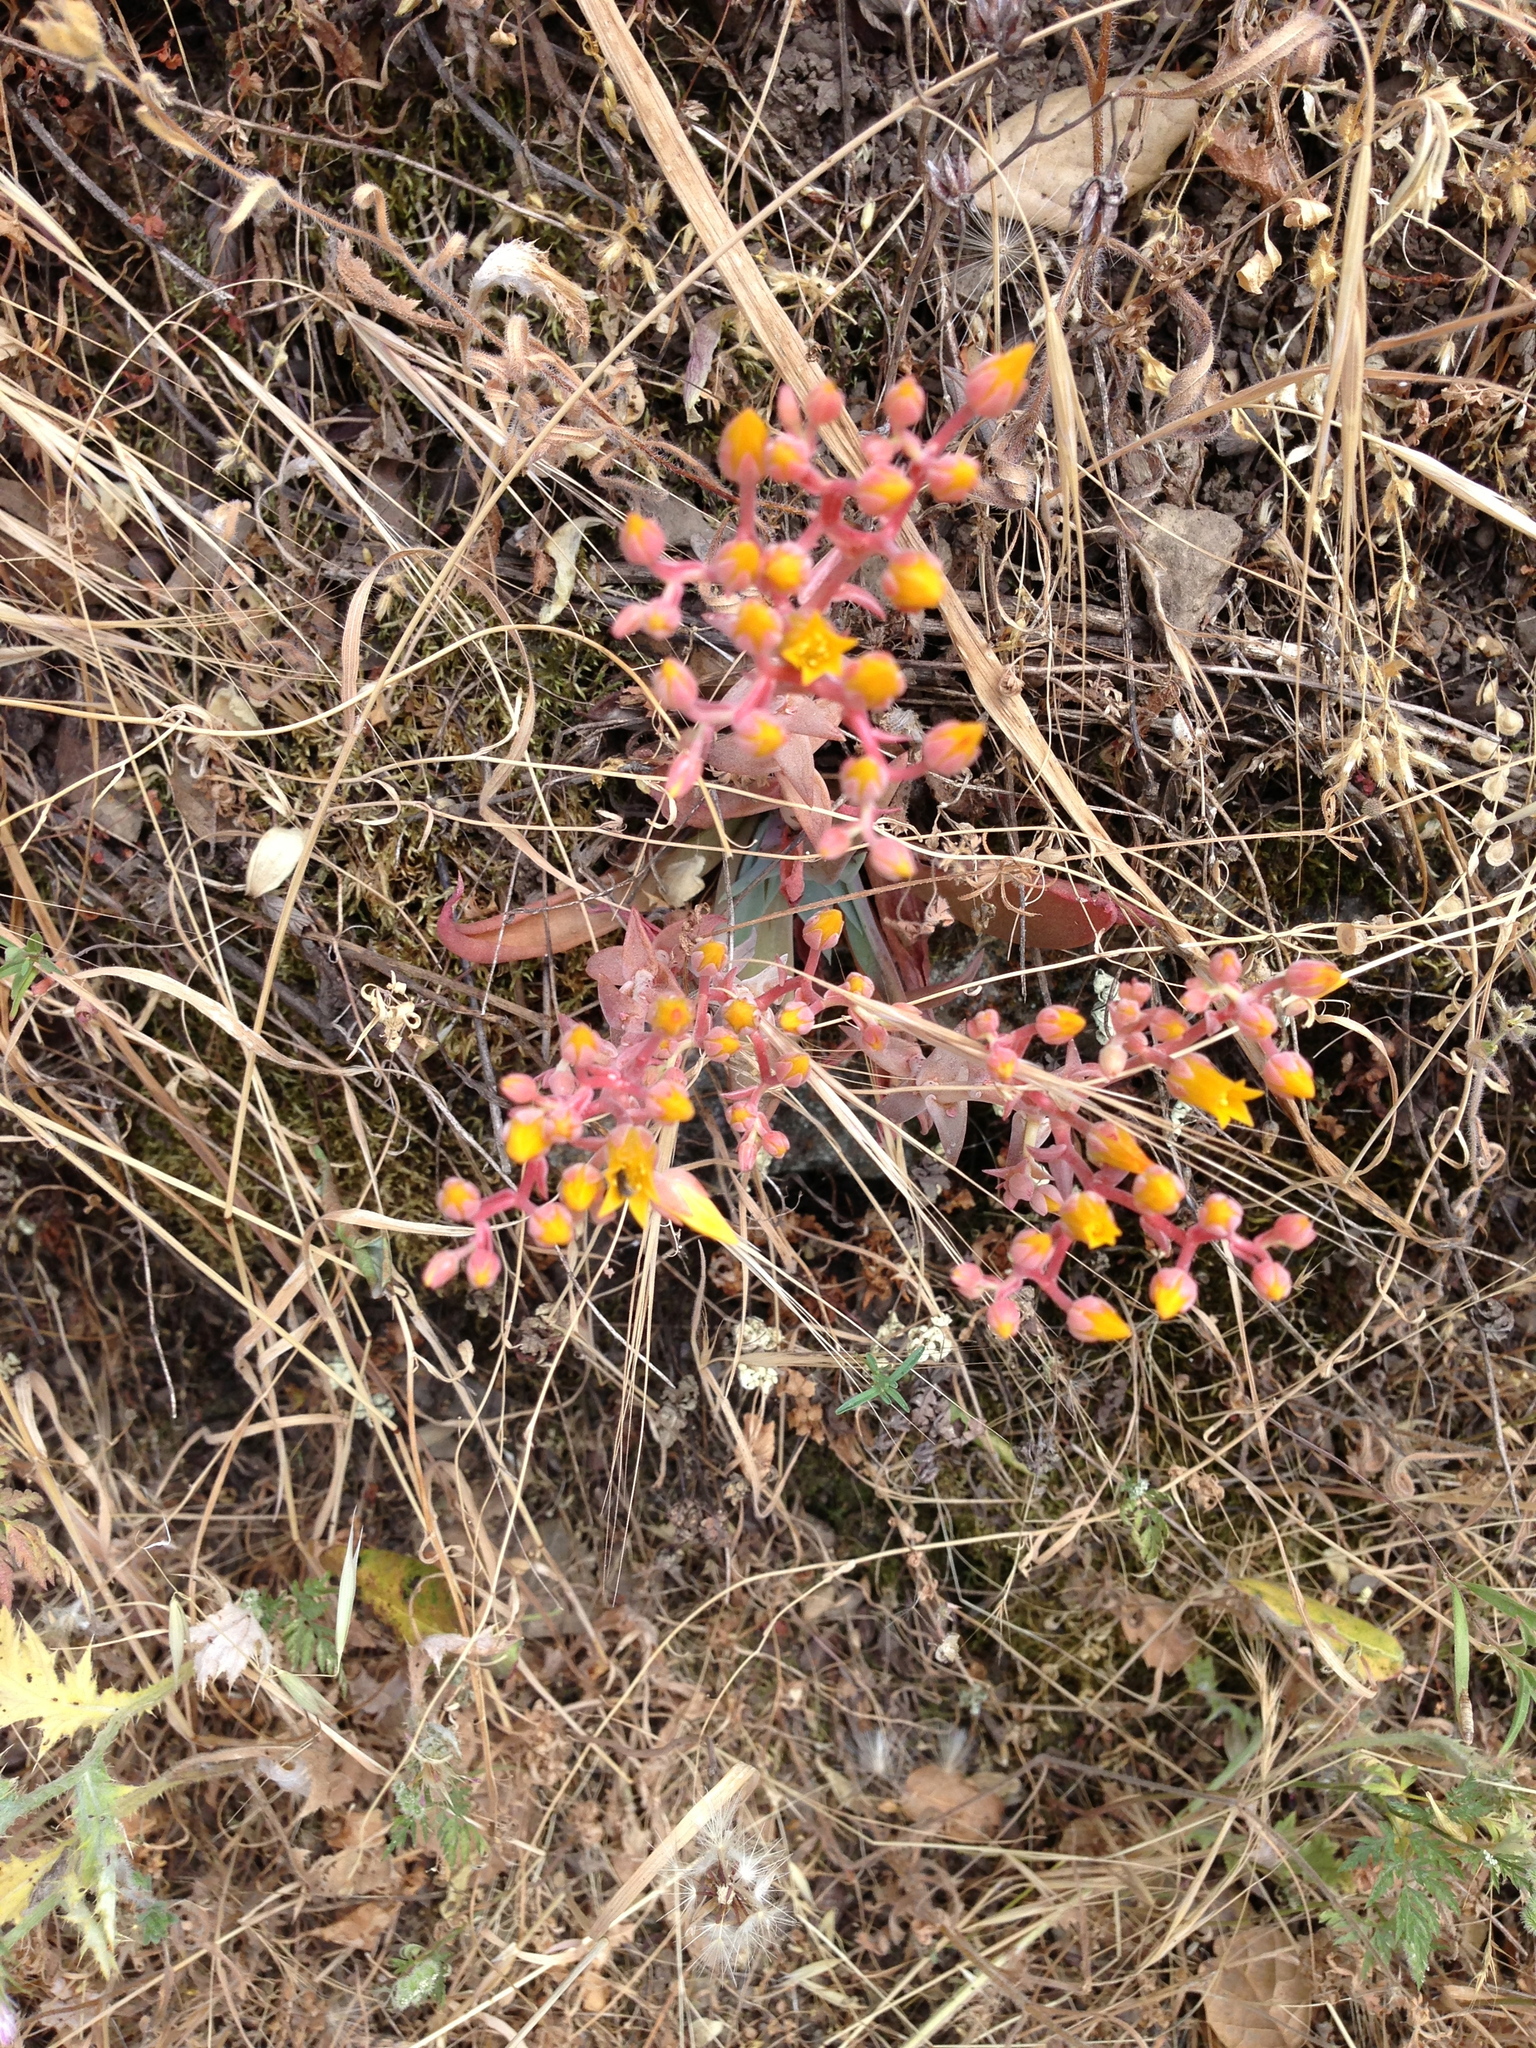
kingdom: Plantae
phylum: Tracheophyta
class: Magnoliopsida
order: Saxifragales
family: Crassulaceae
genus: Dudleya
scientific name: Dudleya cymosa
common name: Canyon dudleya
